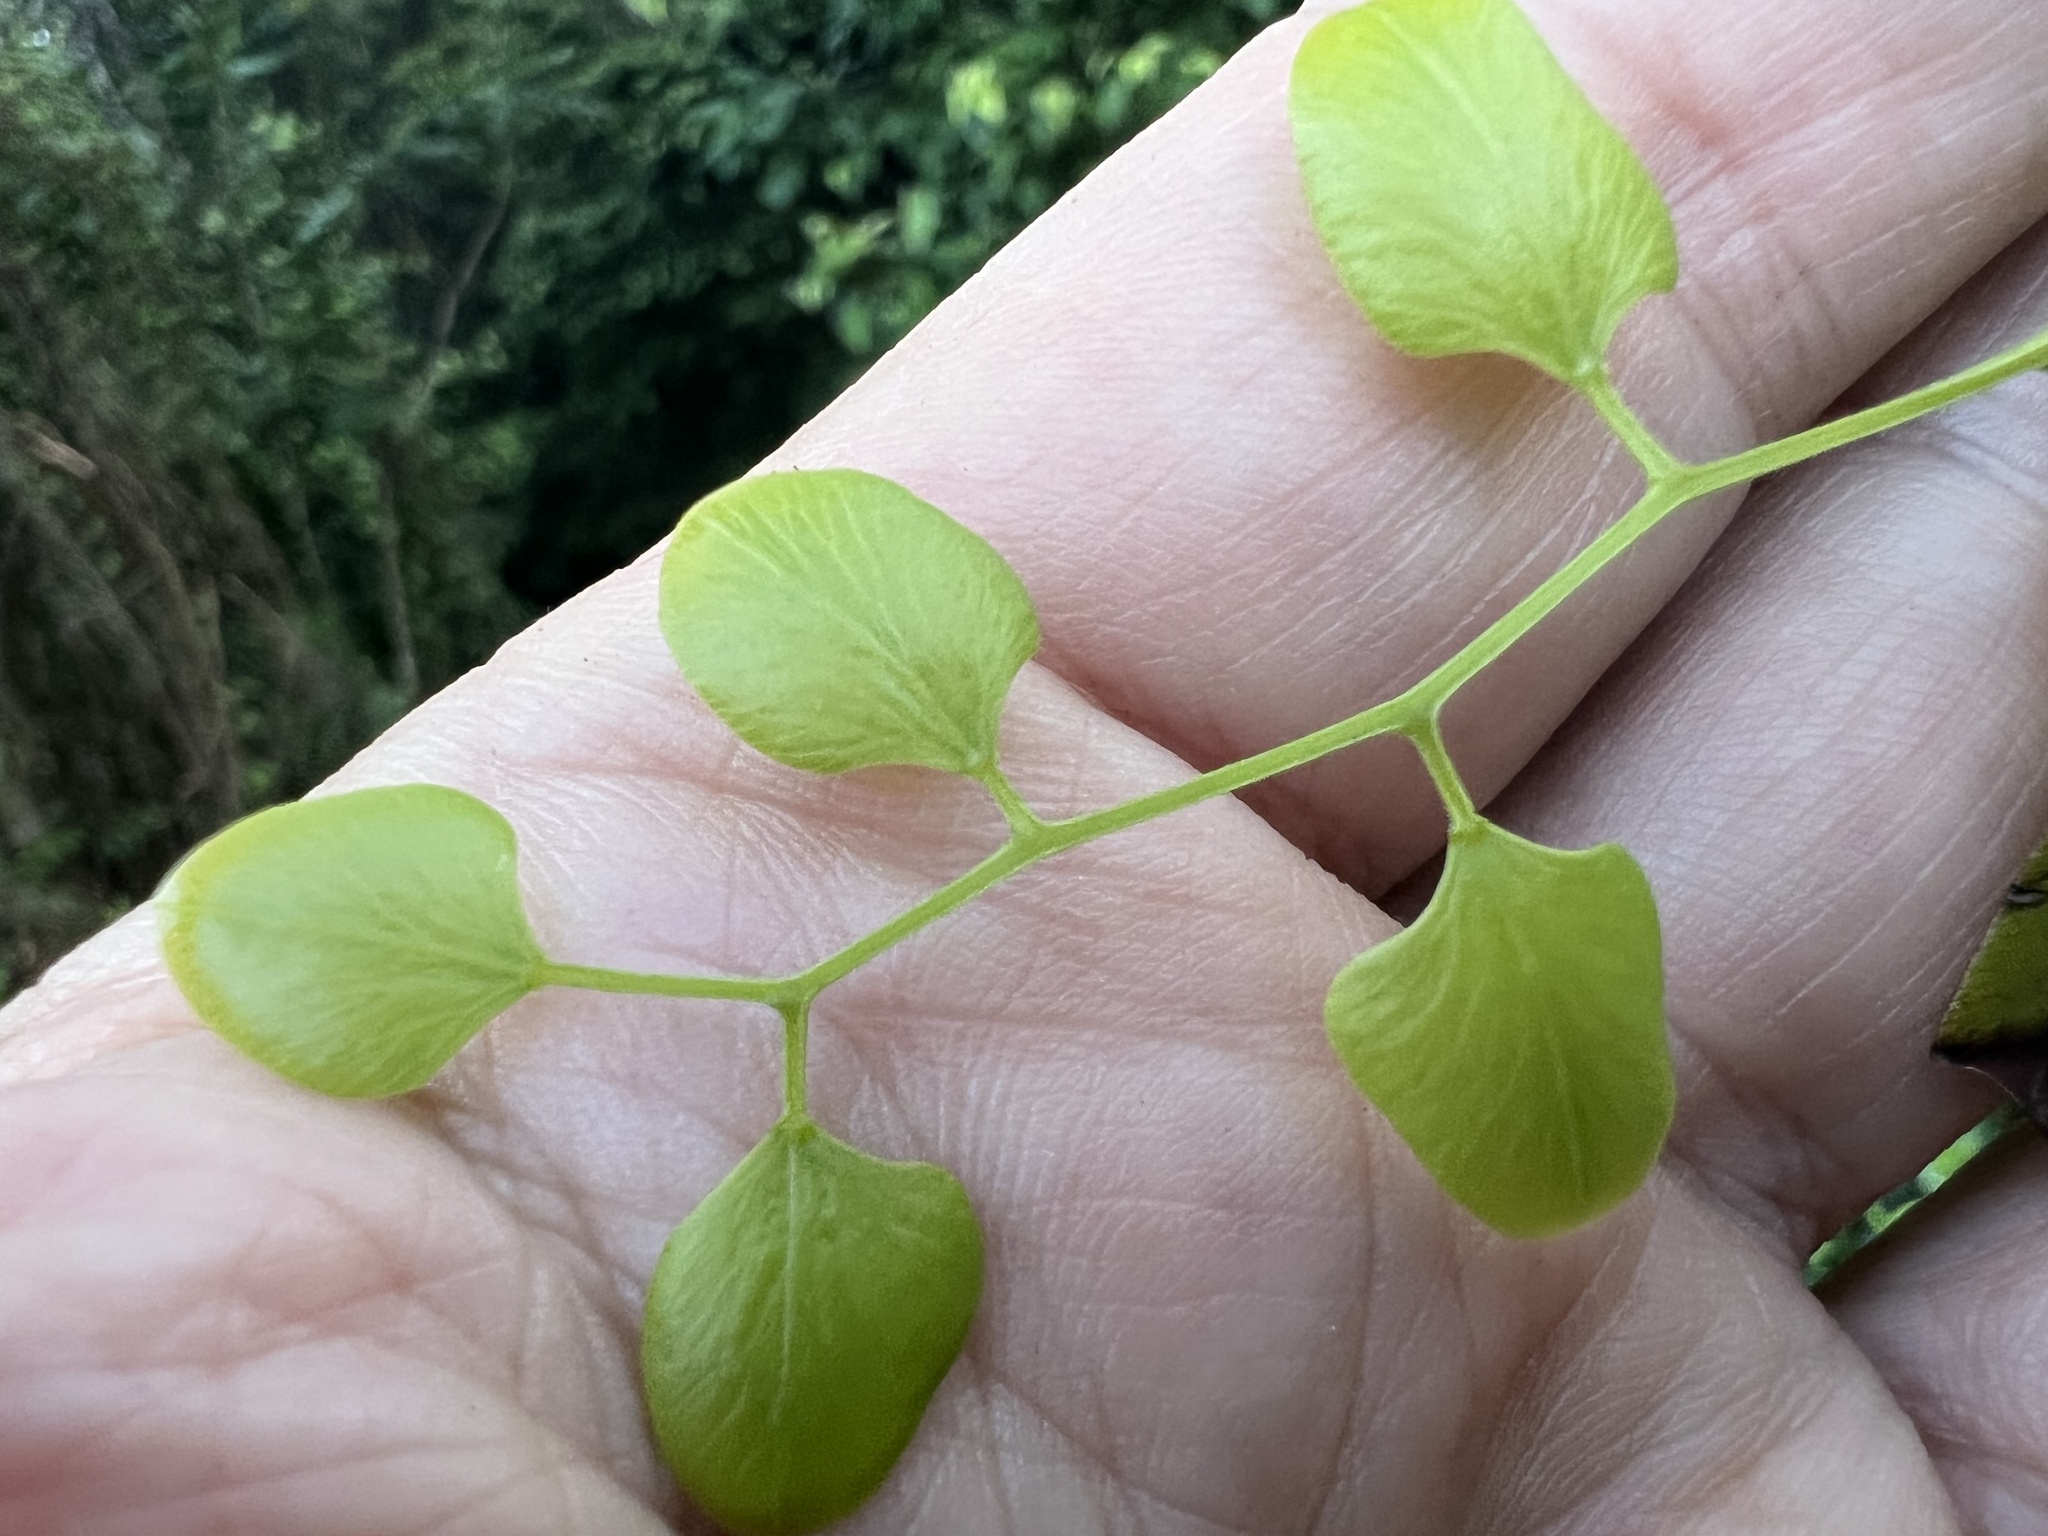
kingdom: Plantae
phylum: Tracheophyta
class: Polypodiopsida
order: Schizaeales
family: Lygodiaceae
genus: Lygodium
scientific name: Lygodium microphyllum
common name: Small-leaf climbing fern
